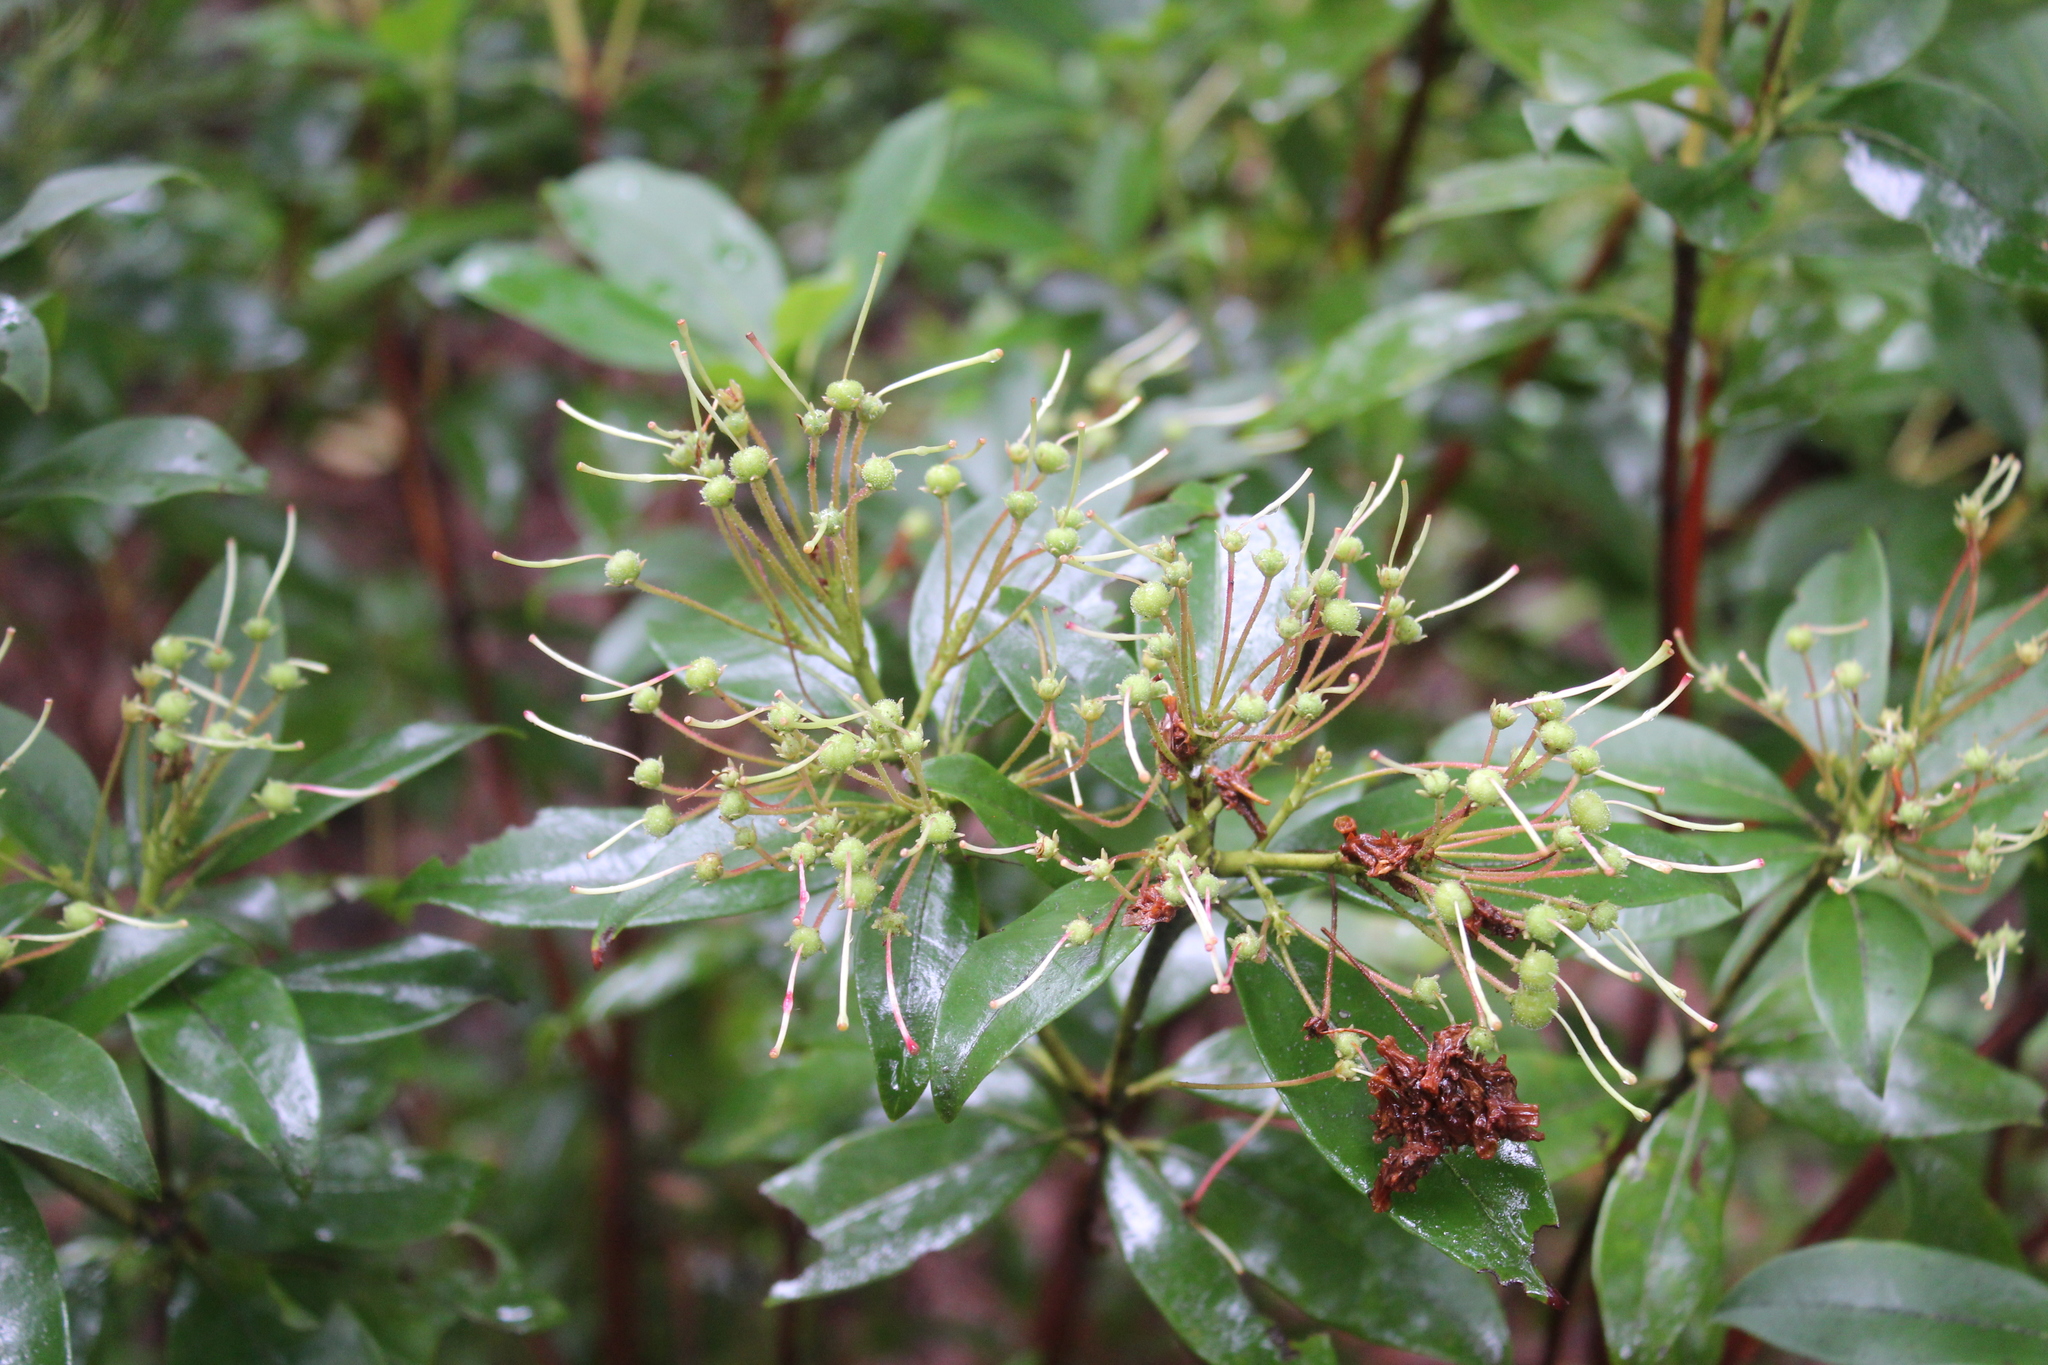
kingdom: Plantae
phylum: Tracheophyta
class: Magnoliopsida
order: Ericales
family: Ericaceae
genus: Kalmia
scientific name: Kalmia latifolia
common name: Mountain-laurel
